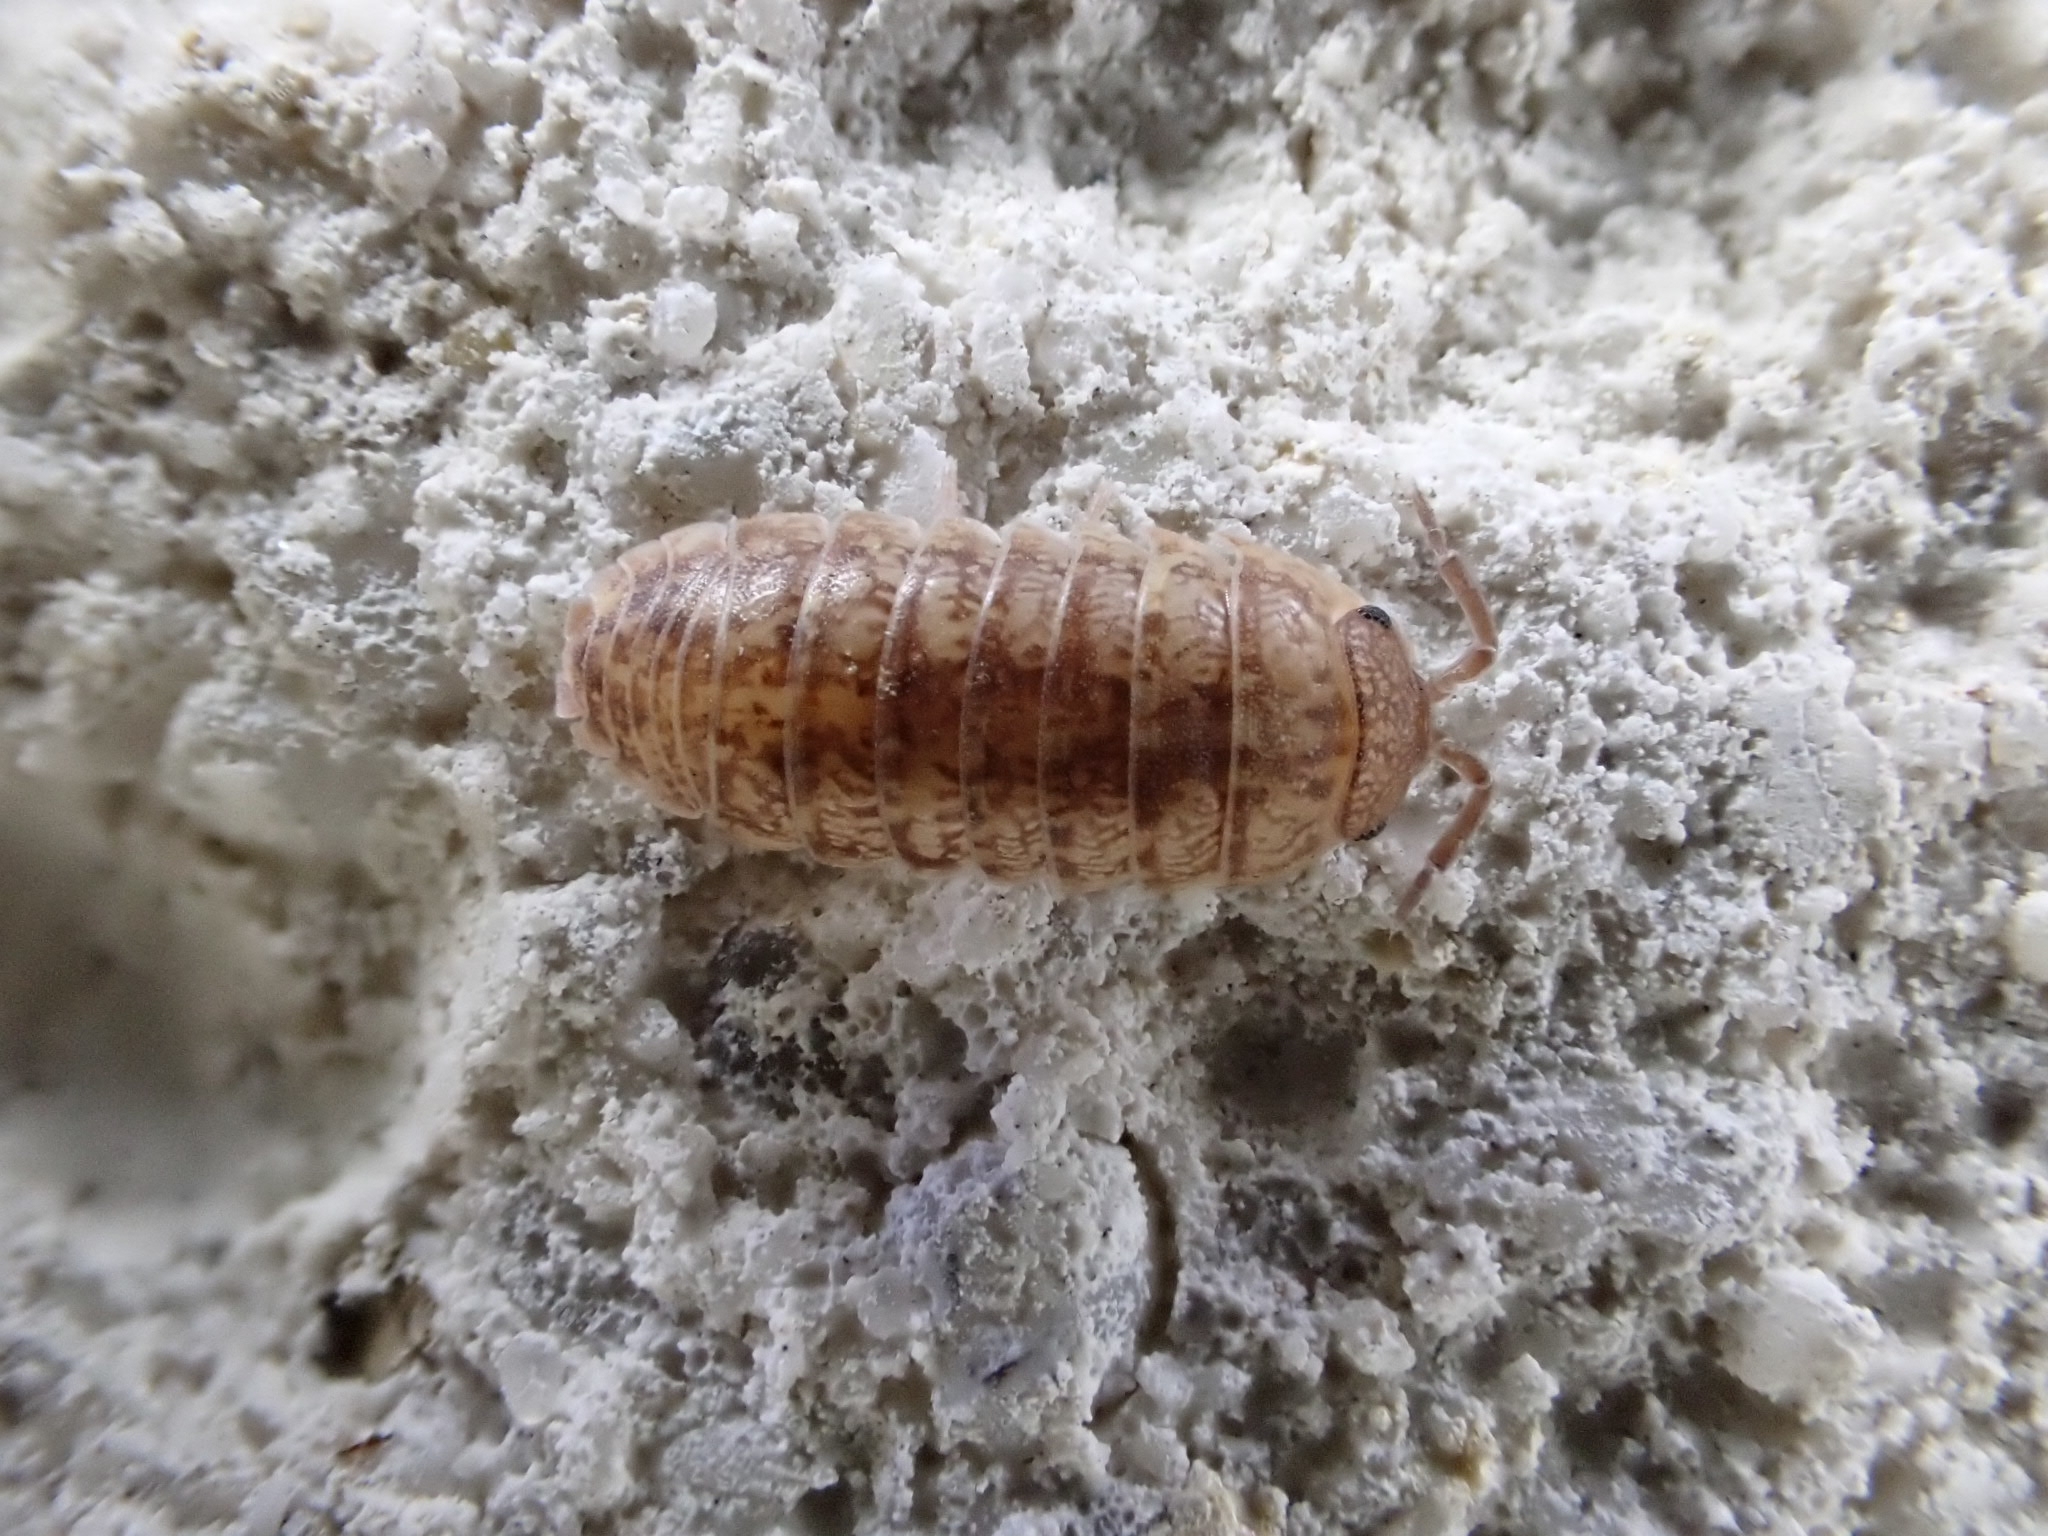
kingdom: Animalia
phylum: Arthropoda
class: Malacostraca
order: Isopoda
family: Armadillidiidae
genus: Armadillidium
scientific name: Armadillidium arcangelii
